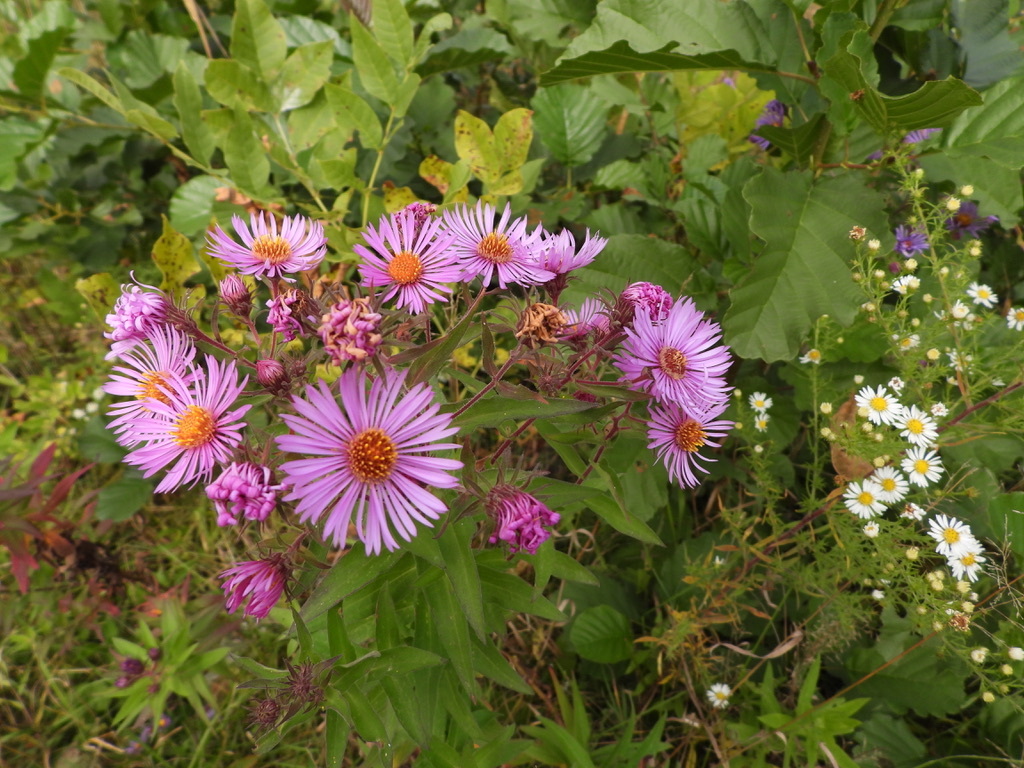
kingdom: Plantae
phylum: Tracheophyta
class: Magnoliopsida
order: Asterales
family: Asteraceae
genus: Symphyotrichum
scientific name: Symphyotrichum novae-angliae
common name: Michaelmas daisy
